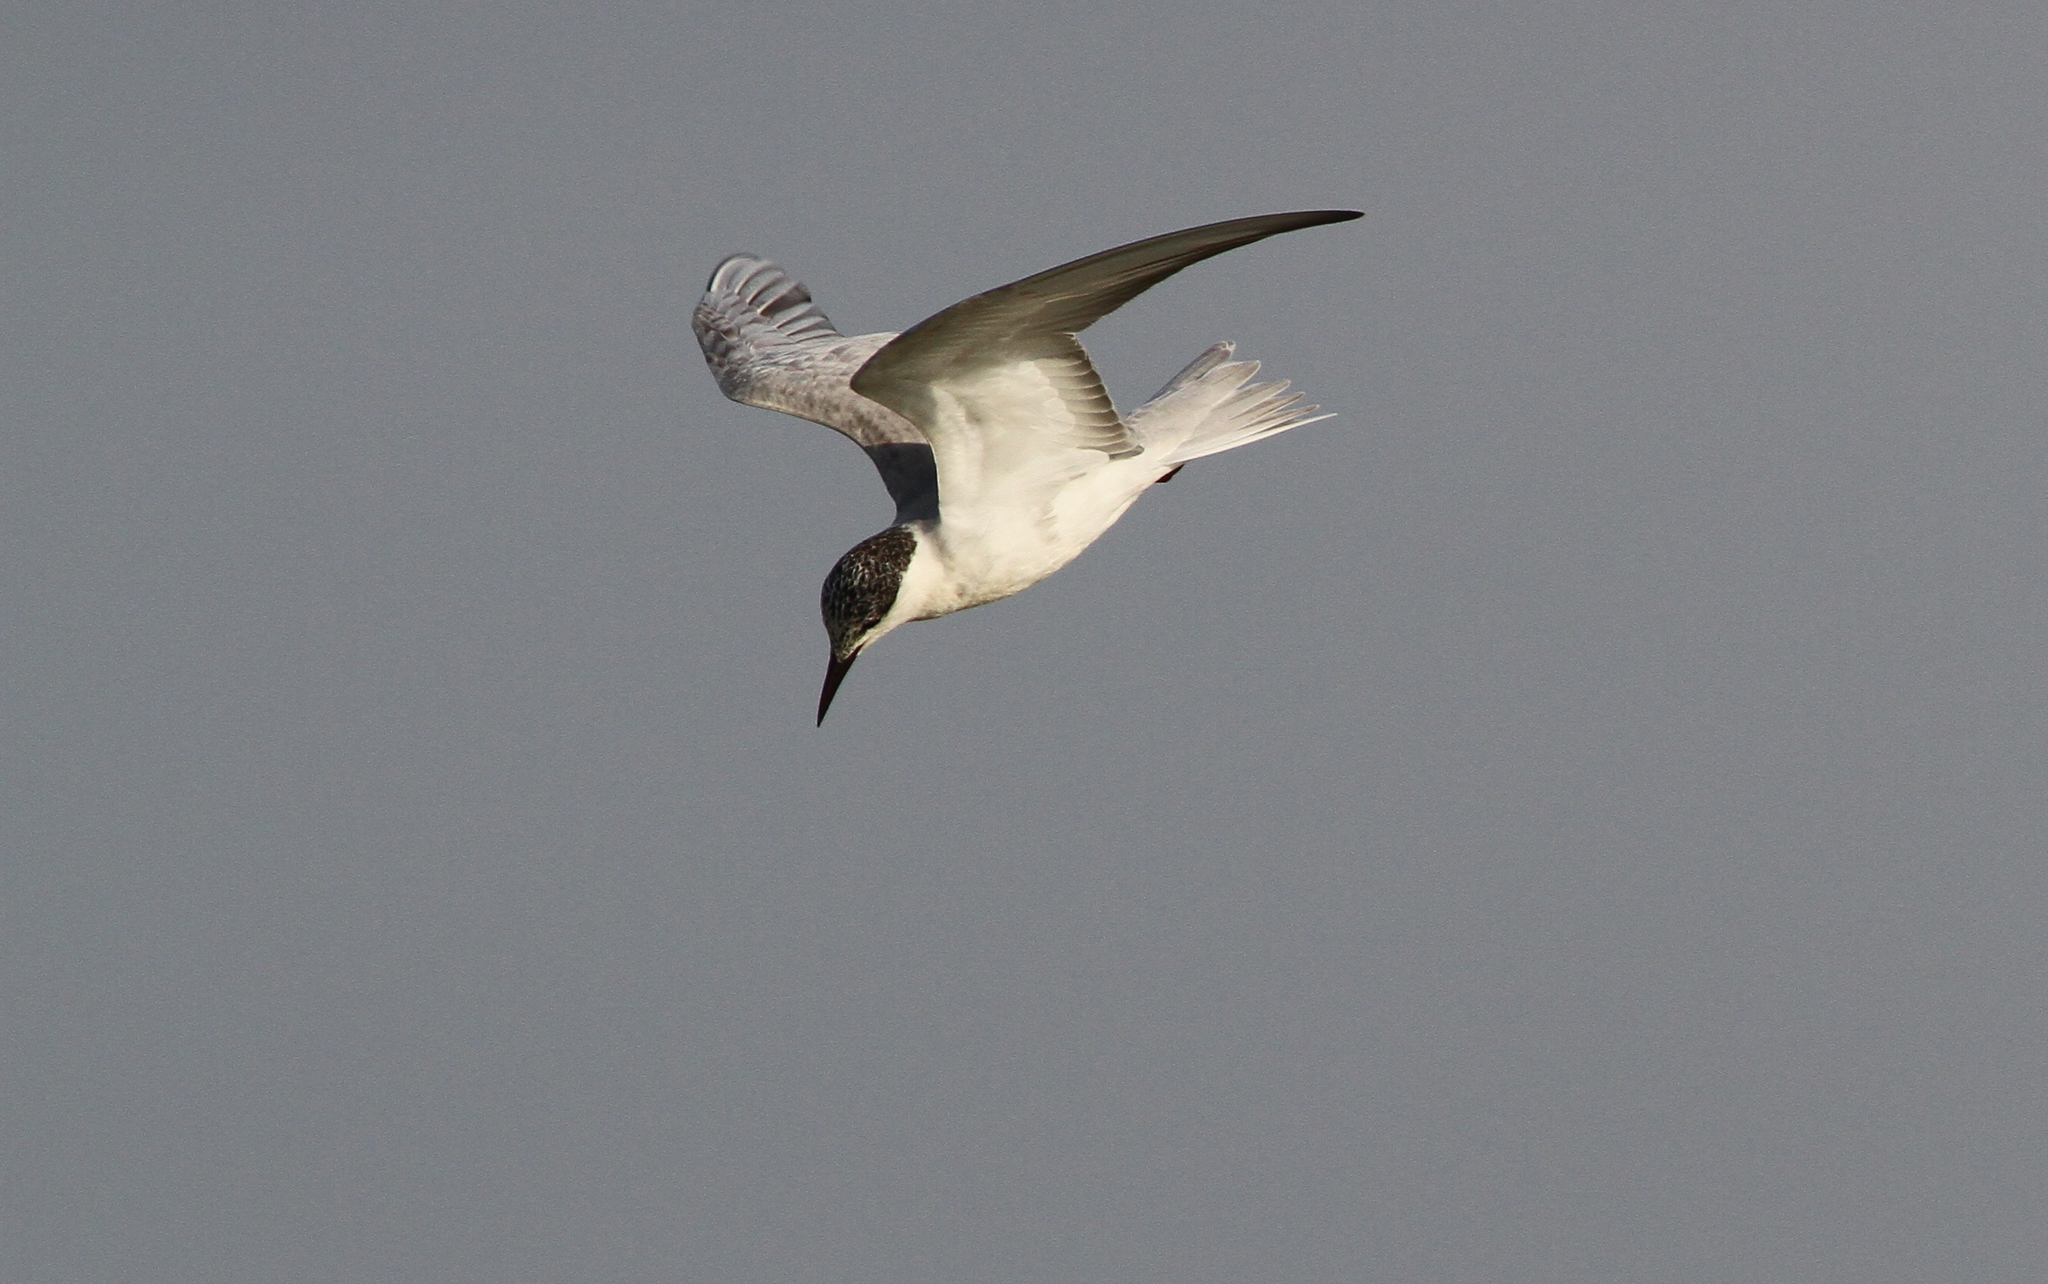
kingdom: Animalia
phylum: Chordata
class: Aves
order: Charadriiformes
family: Laridae
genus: Chlidonias
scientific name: Chlidonias hybrida
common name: Whiskered tern
